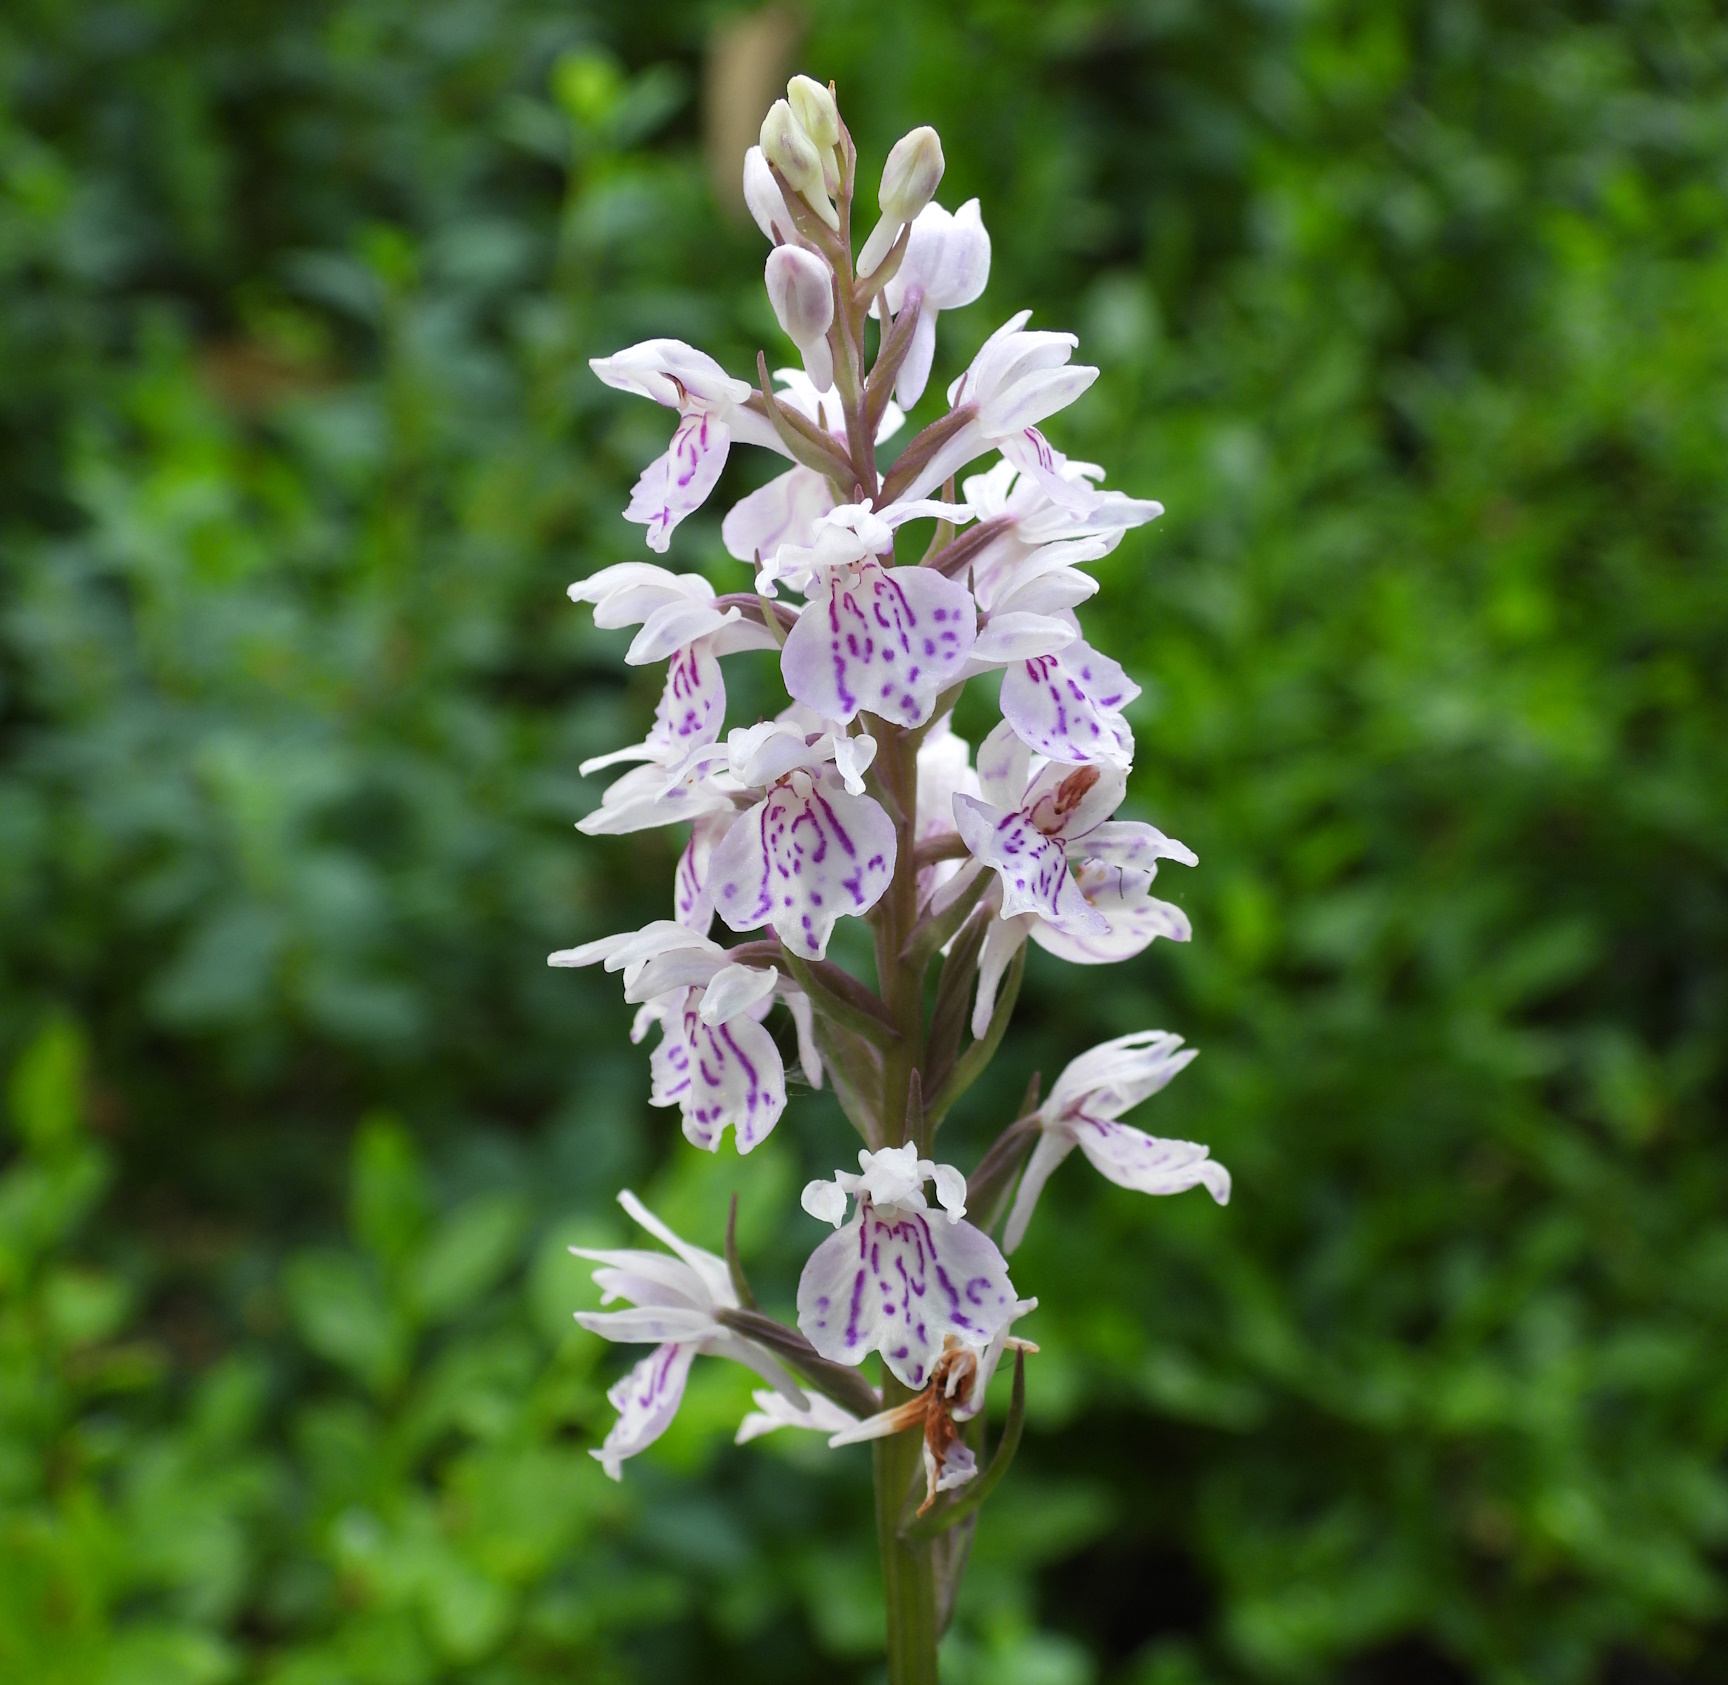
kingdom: Plantae
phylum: Tracheophyta
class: Liliopsida
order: Asparagales
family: Orchidaceae
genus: Dactylorhiza
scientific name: Dactylorhiza maculata
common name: Heath spotted-orchid
